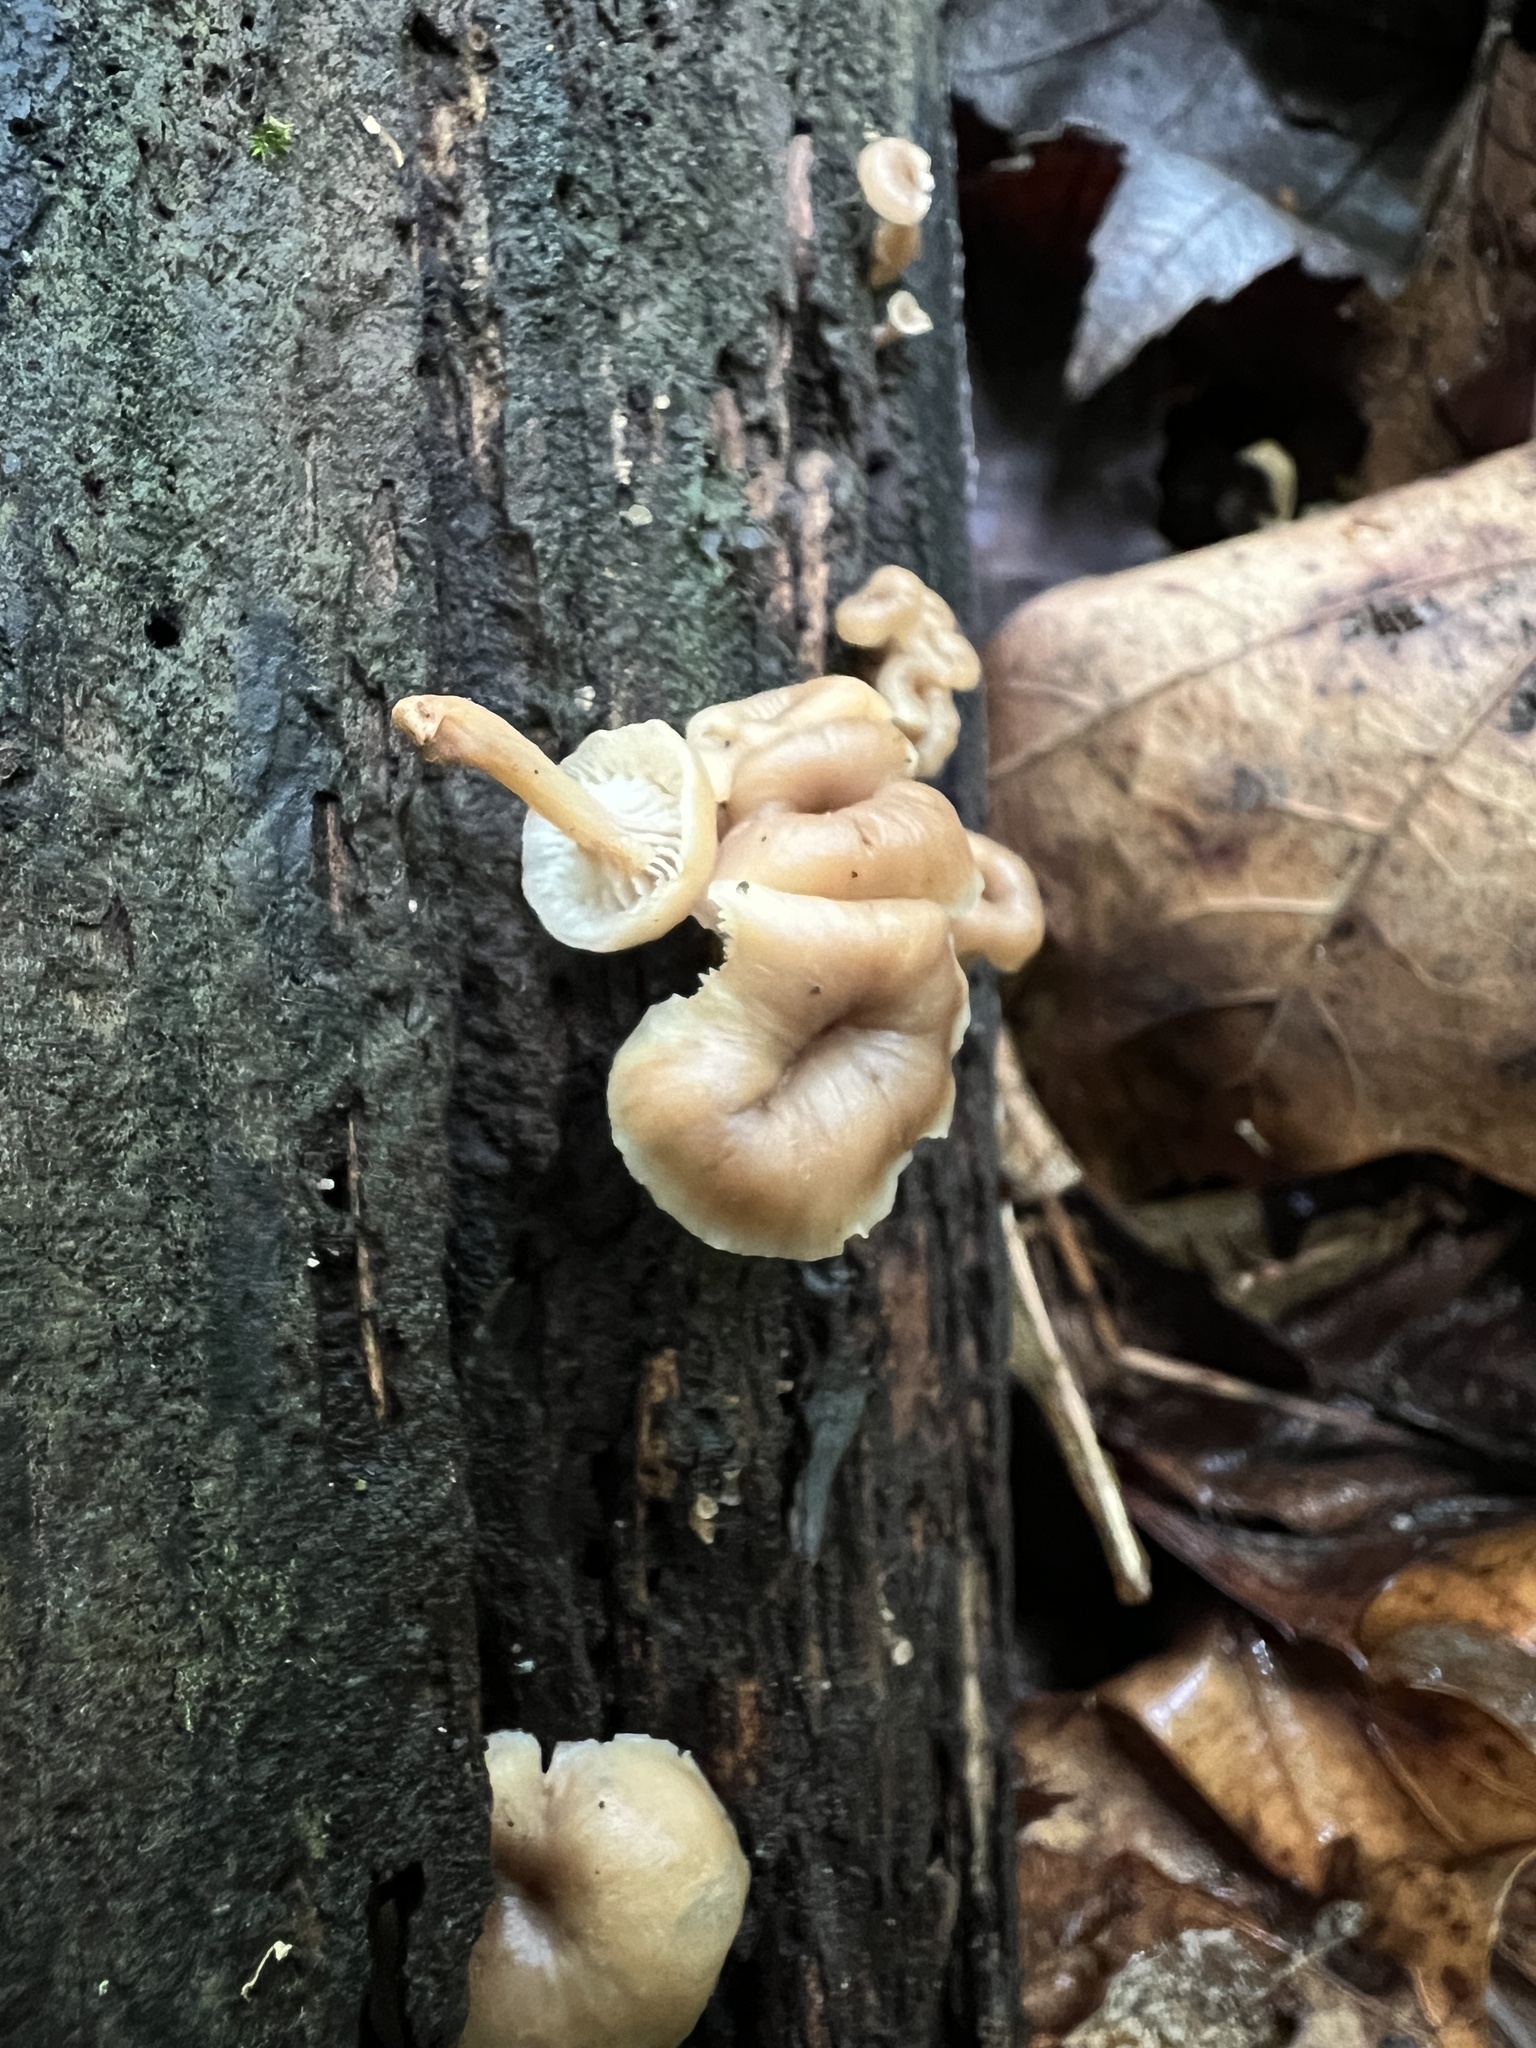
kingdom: Fungi
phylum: Basidiomycota
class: Agaricomycetes
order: Russulales
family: Auriscalpiaceae
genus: Lentinellus
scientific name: Lentinellus micheneri
